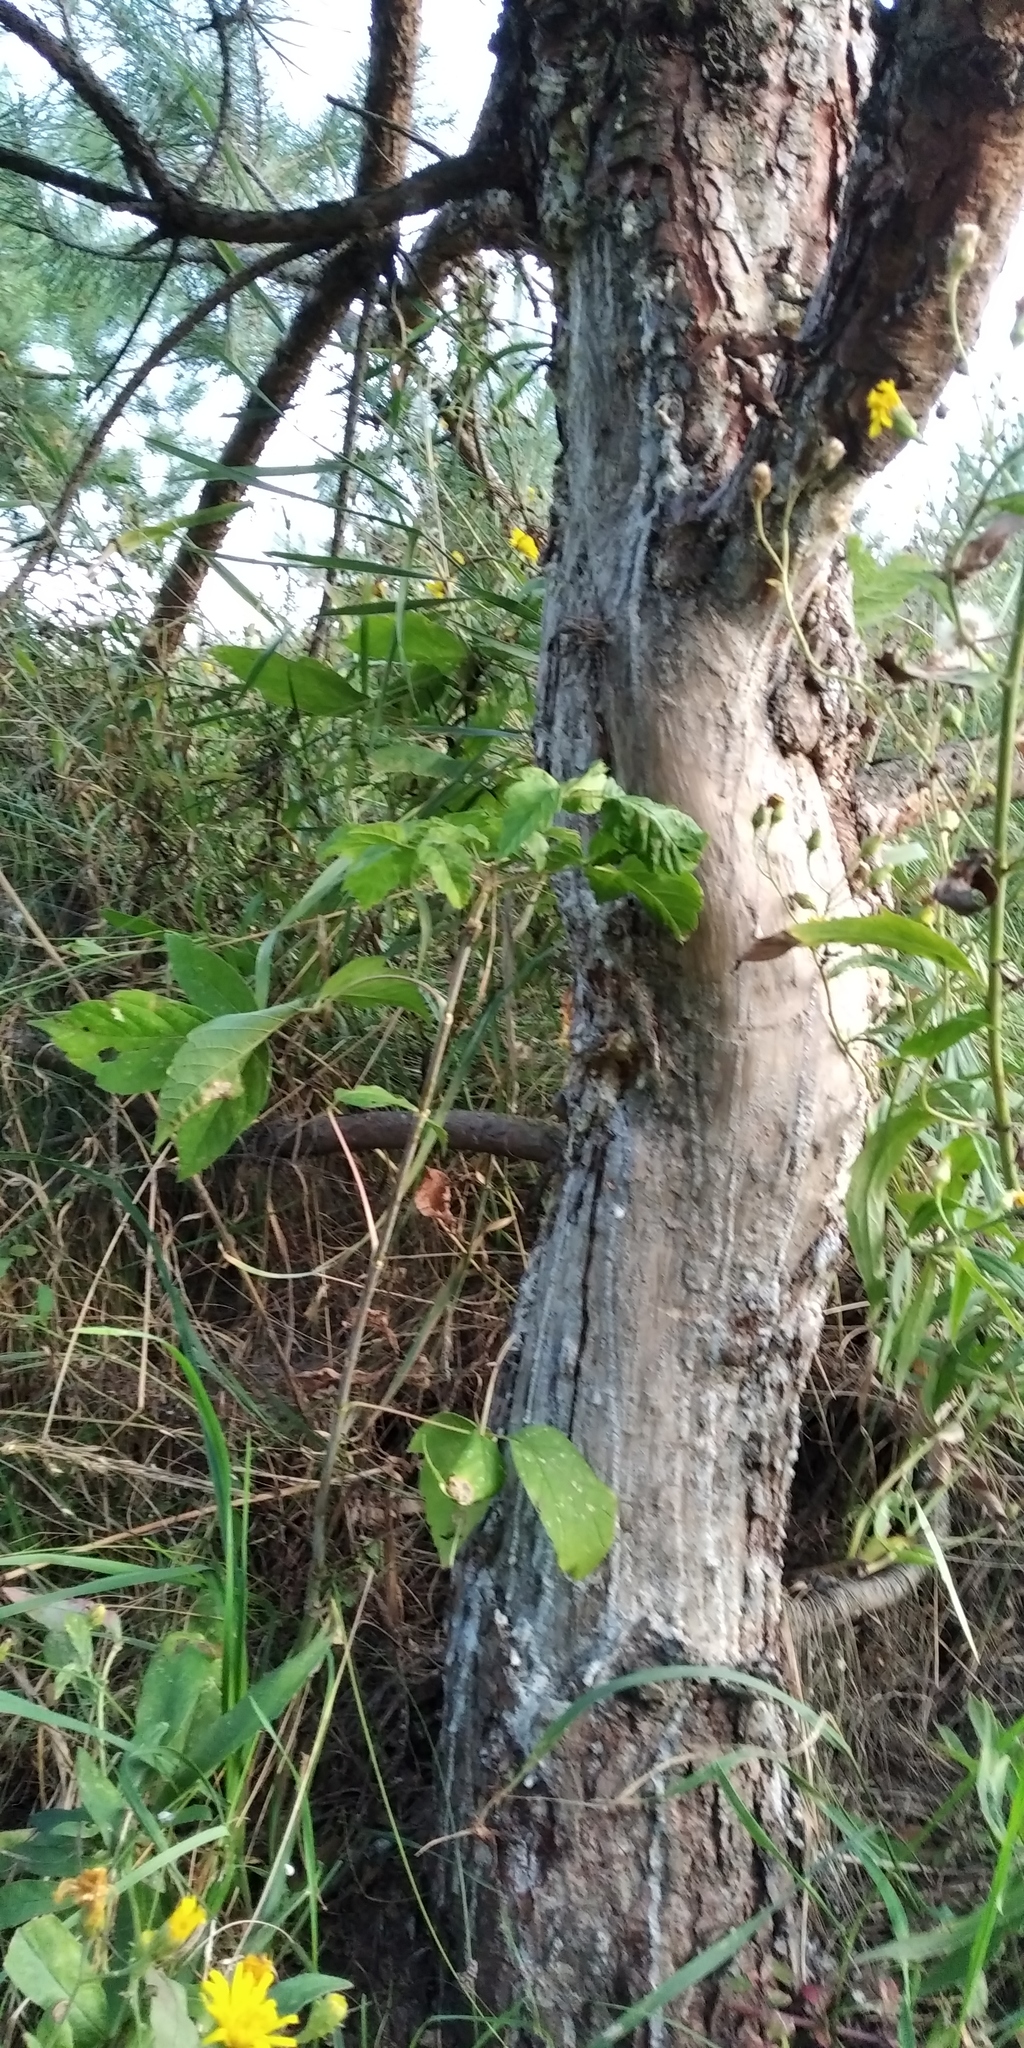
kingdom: Animalia
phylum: Chordata
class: Mammalia
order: Artiodactyla
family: Suidae
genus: Sus
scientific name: Sus scrofa
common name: Wild boar
